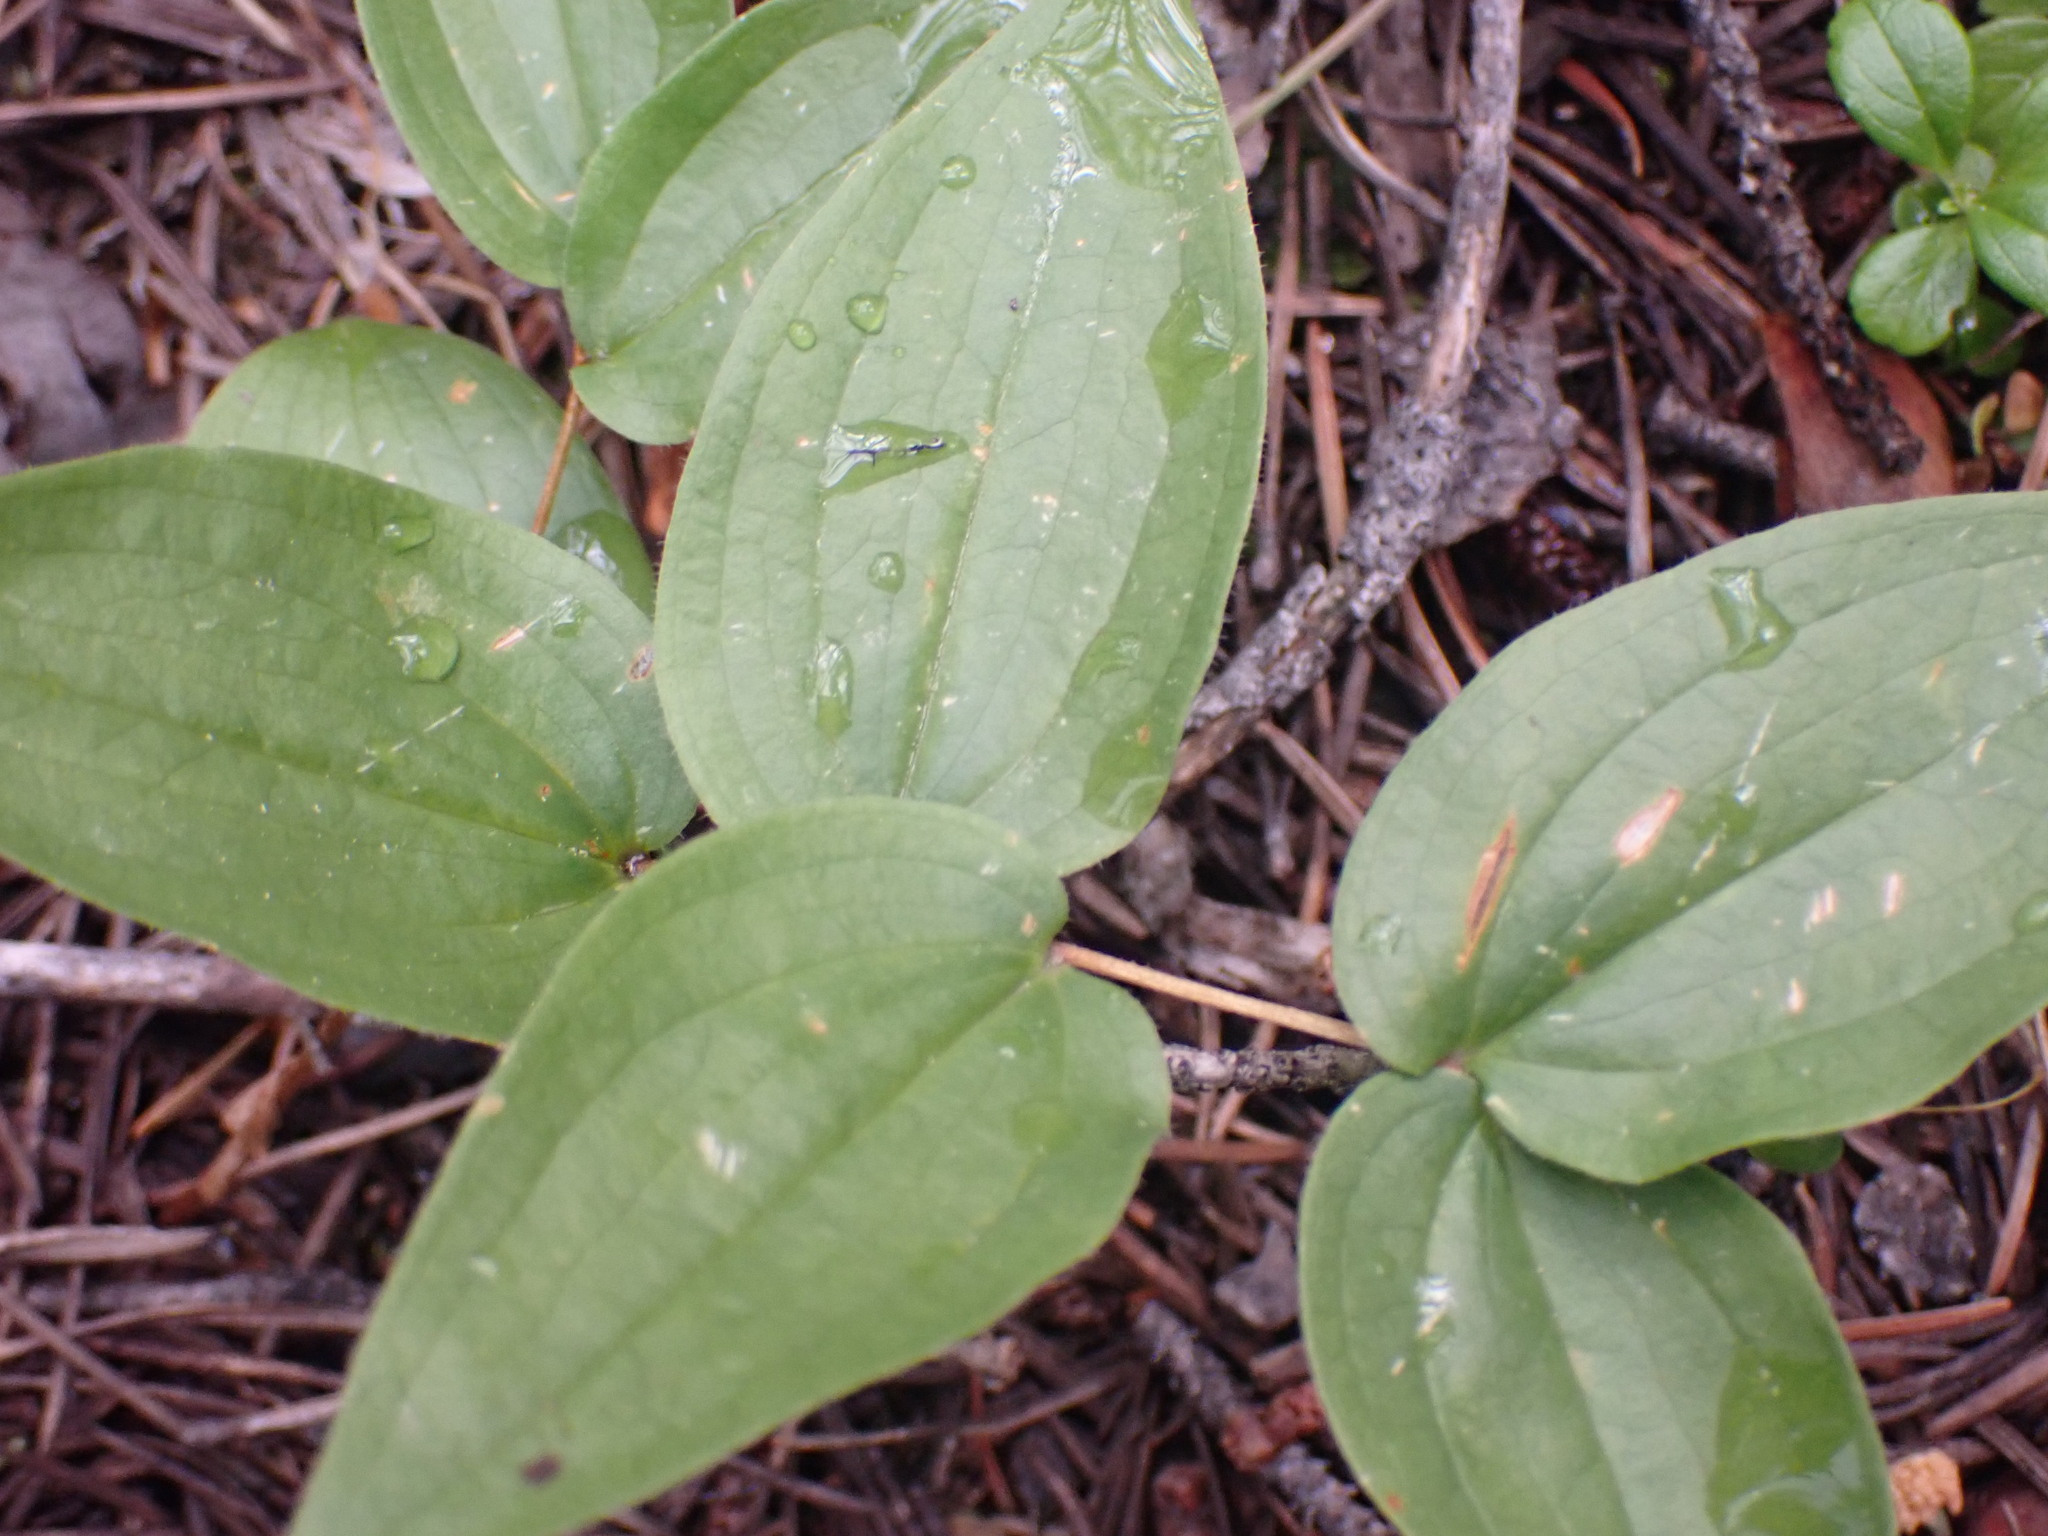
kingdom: Plantae
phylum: Tracheophyta
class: Liliopsida
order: Liliales
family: Liliaceae
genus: Prosartes
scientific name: Prosartes trachycarpa
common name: Rough-fruit fairy-bells
